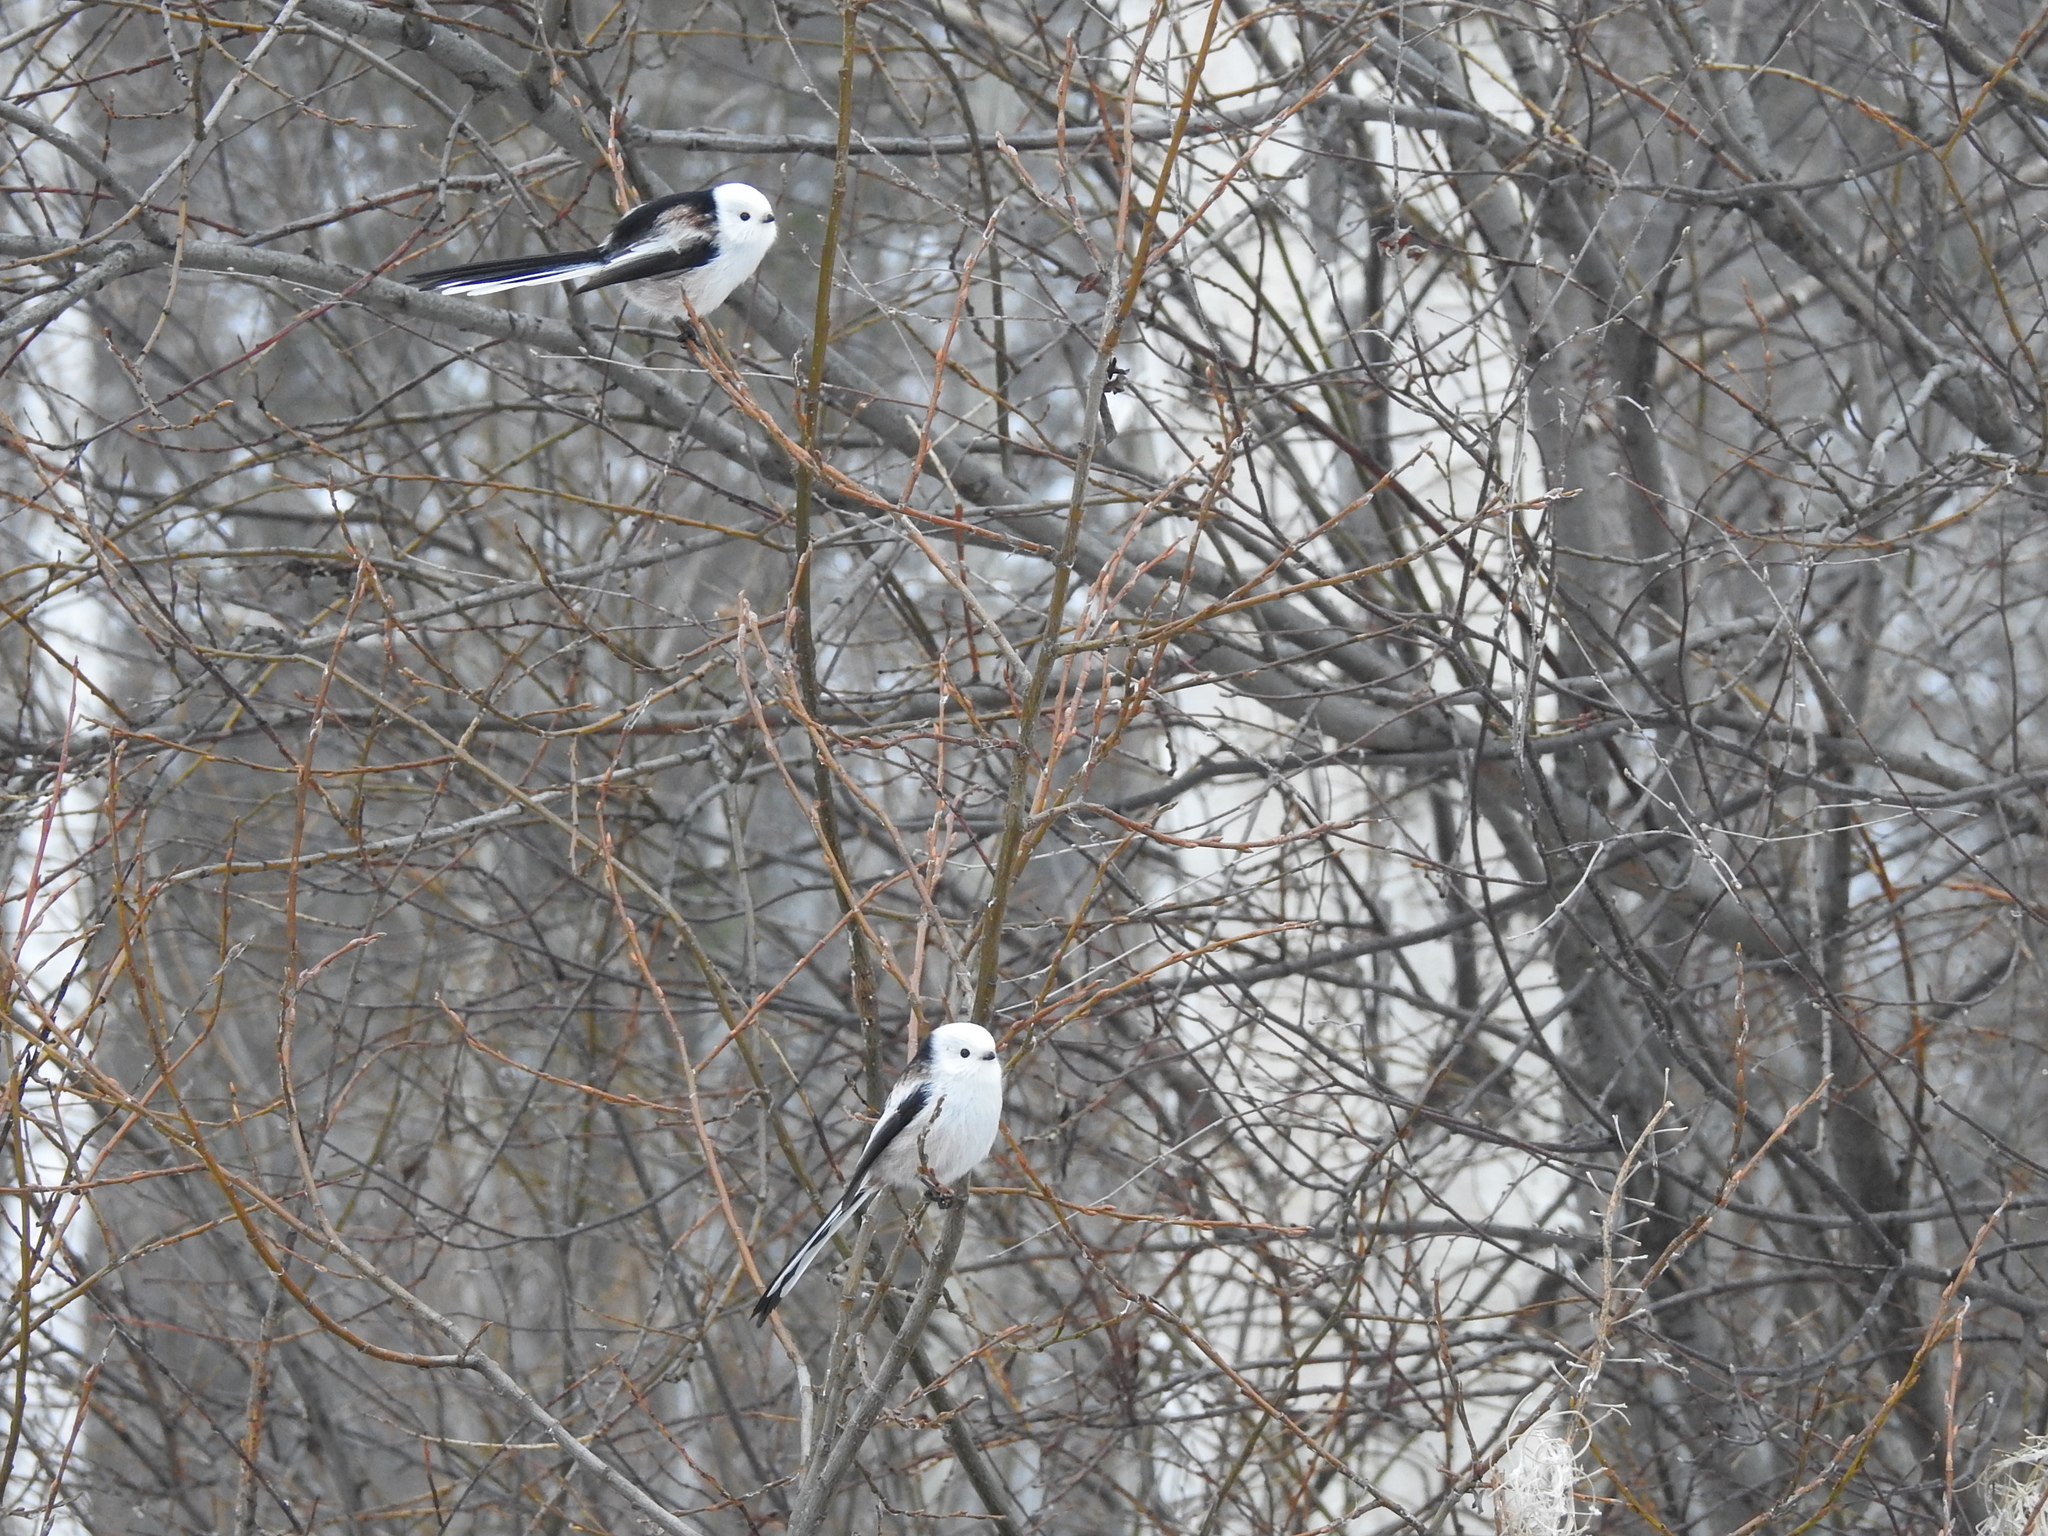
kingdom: Animalia
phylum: Chordata
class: Aves
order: Passeriformes
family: Aegithalidae
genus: Aegithalos
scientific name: Aegithalos caudatus
